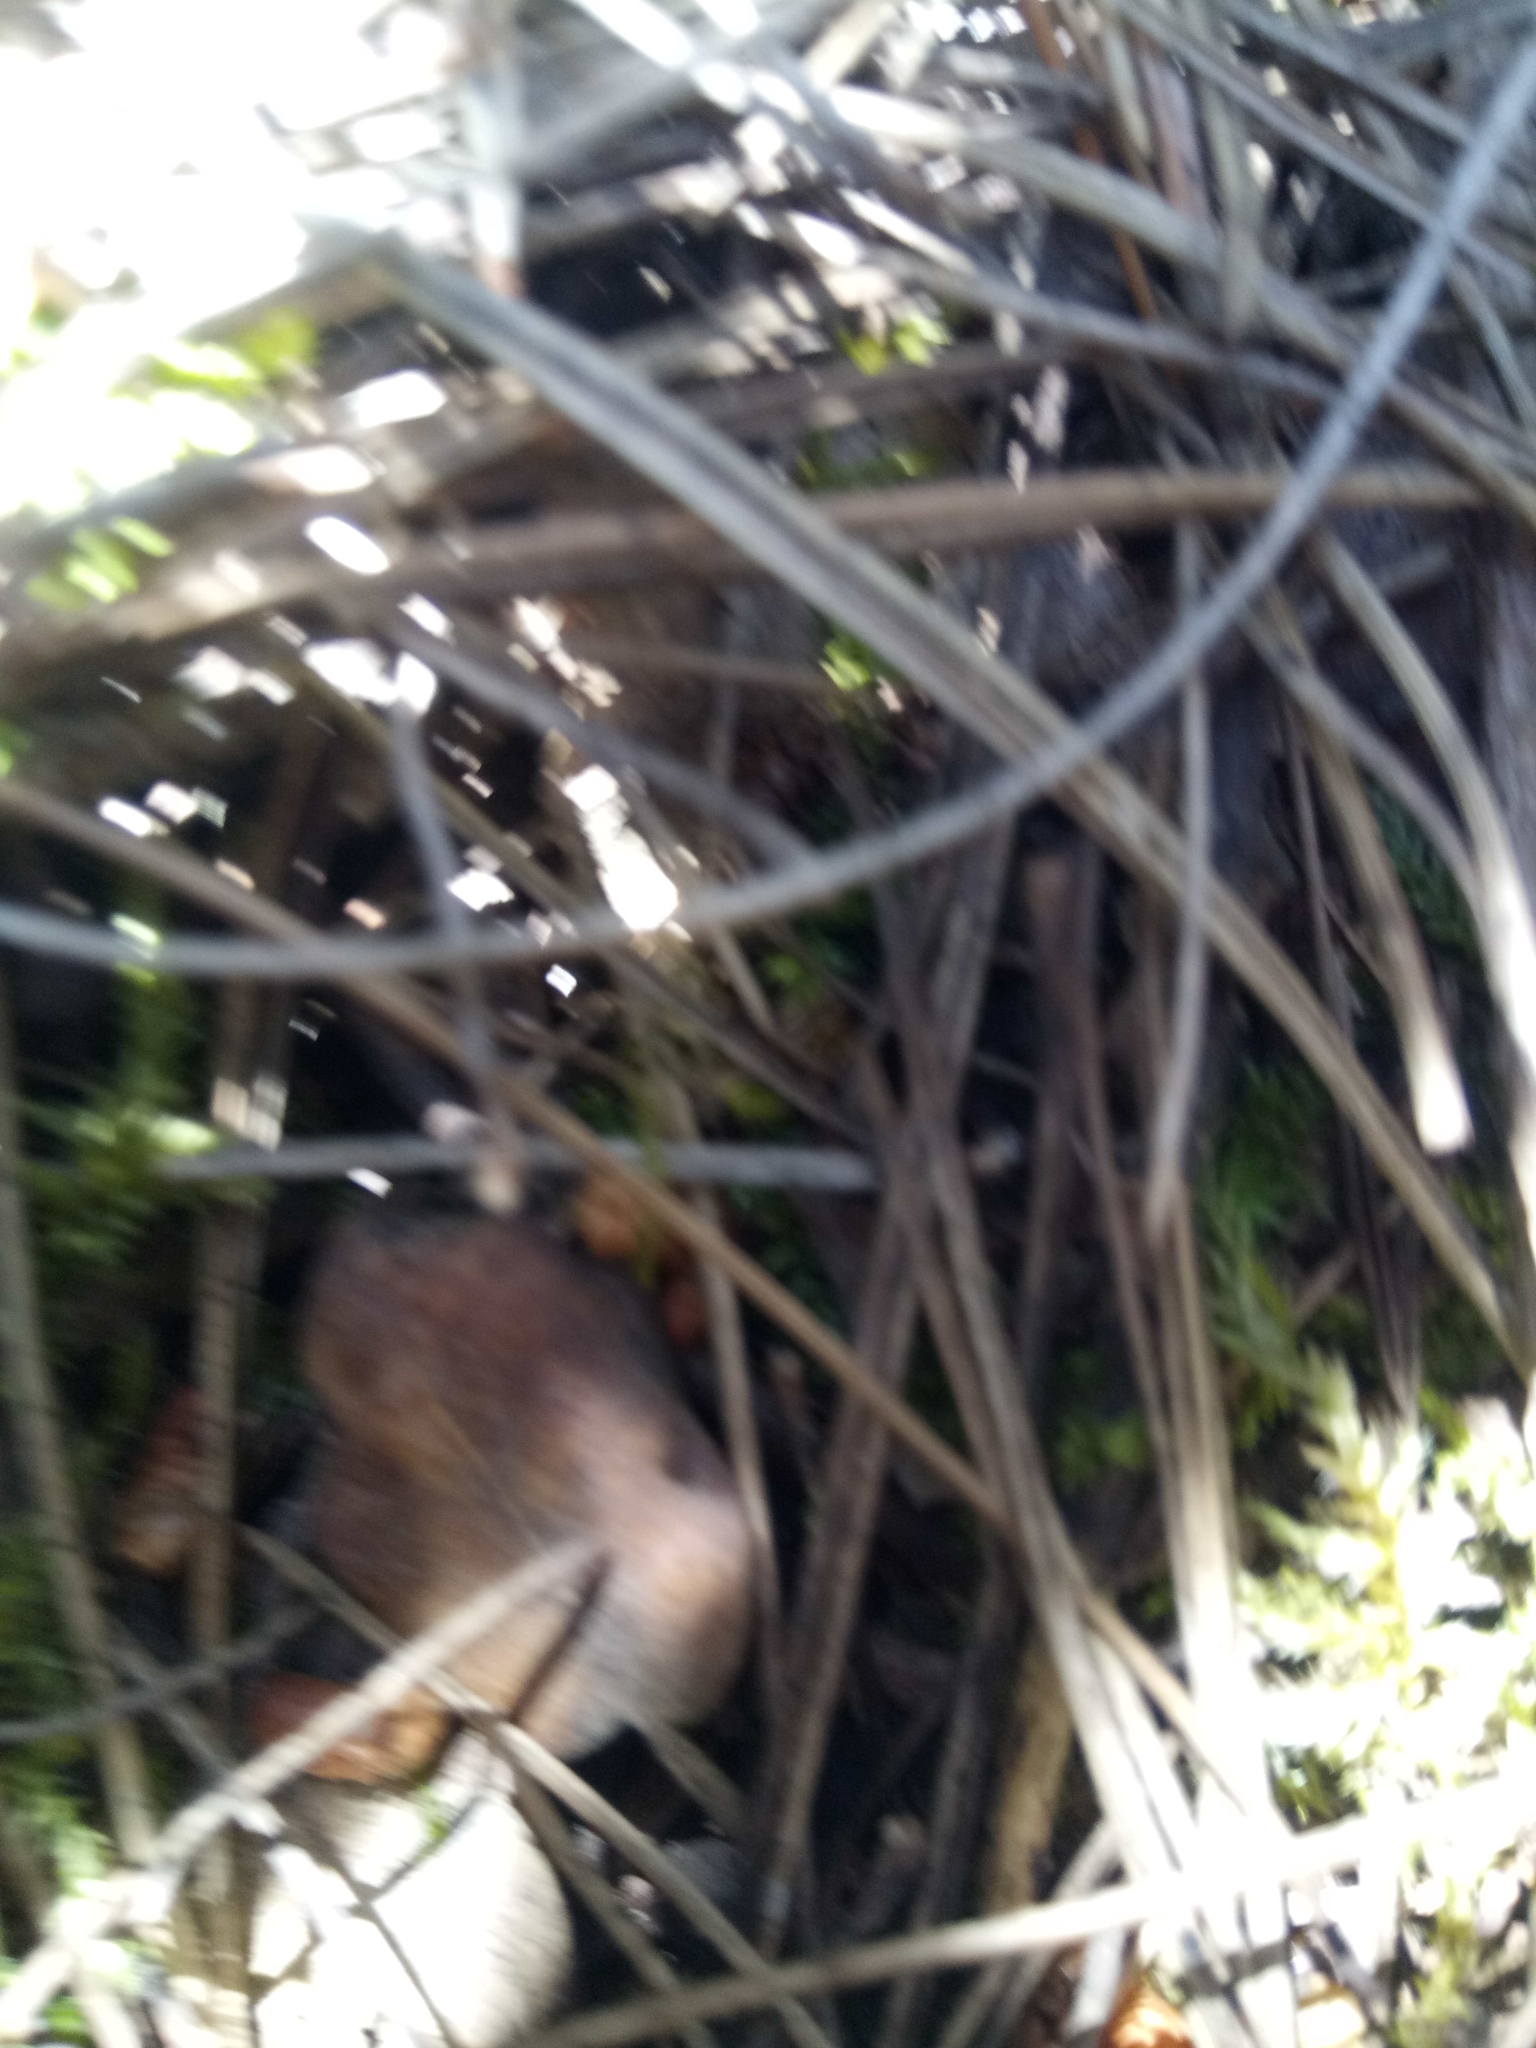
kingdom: Plantae
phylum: Tracheophyta
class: Liliopsida
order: Poales
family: Poaceae
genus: Catapodium
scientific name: Catapodium rigidum
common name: Fern-grass
